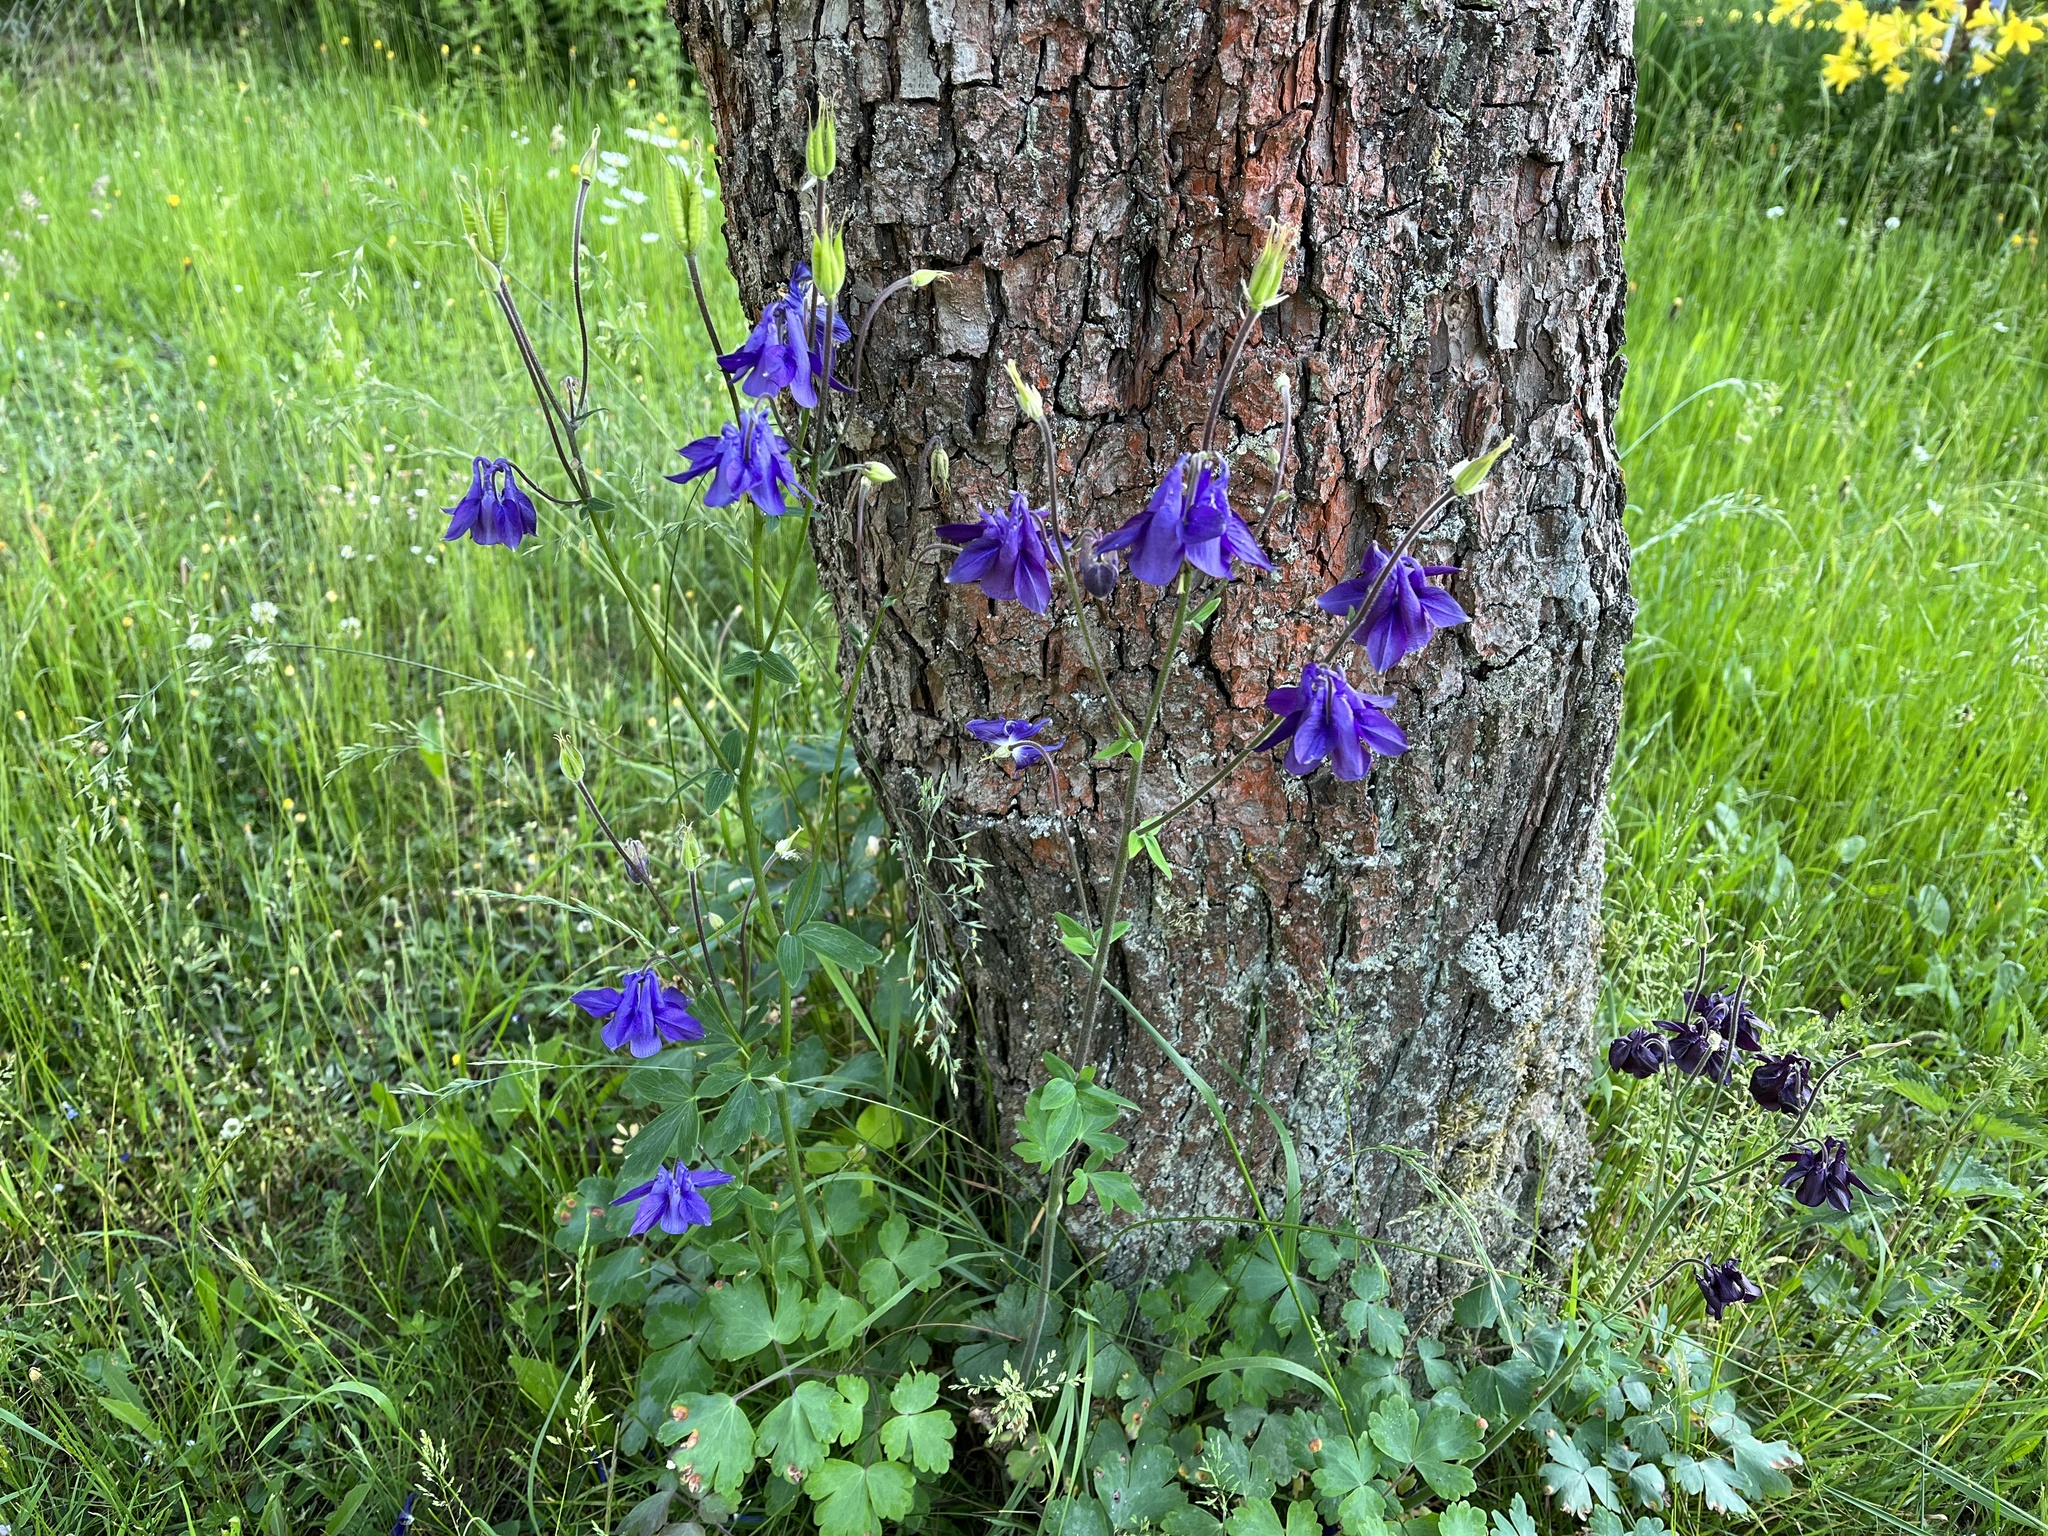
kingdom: Plantae
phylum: Tracheophyta
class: Magnoliopsida
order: Ranunculales
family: Ranunculaceae
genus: Aquilegia
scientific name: Aquilegia vulgaris
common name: Columbine
